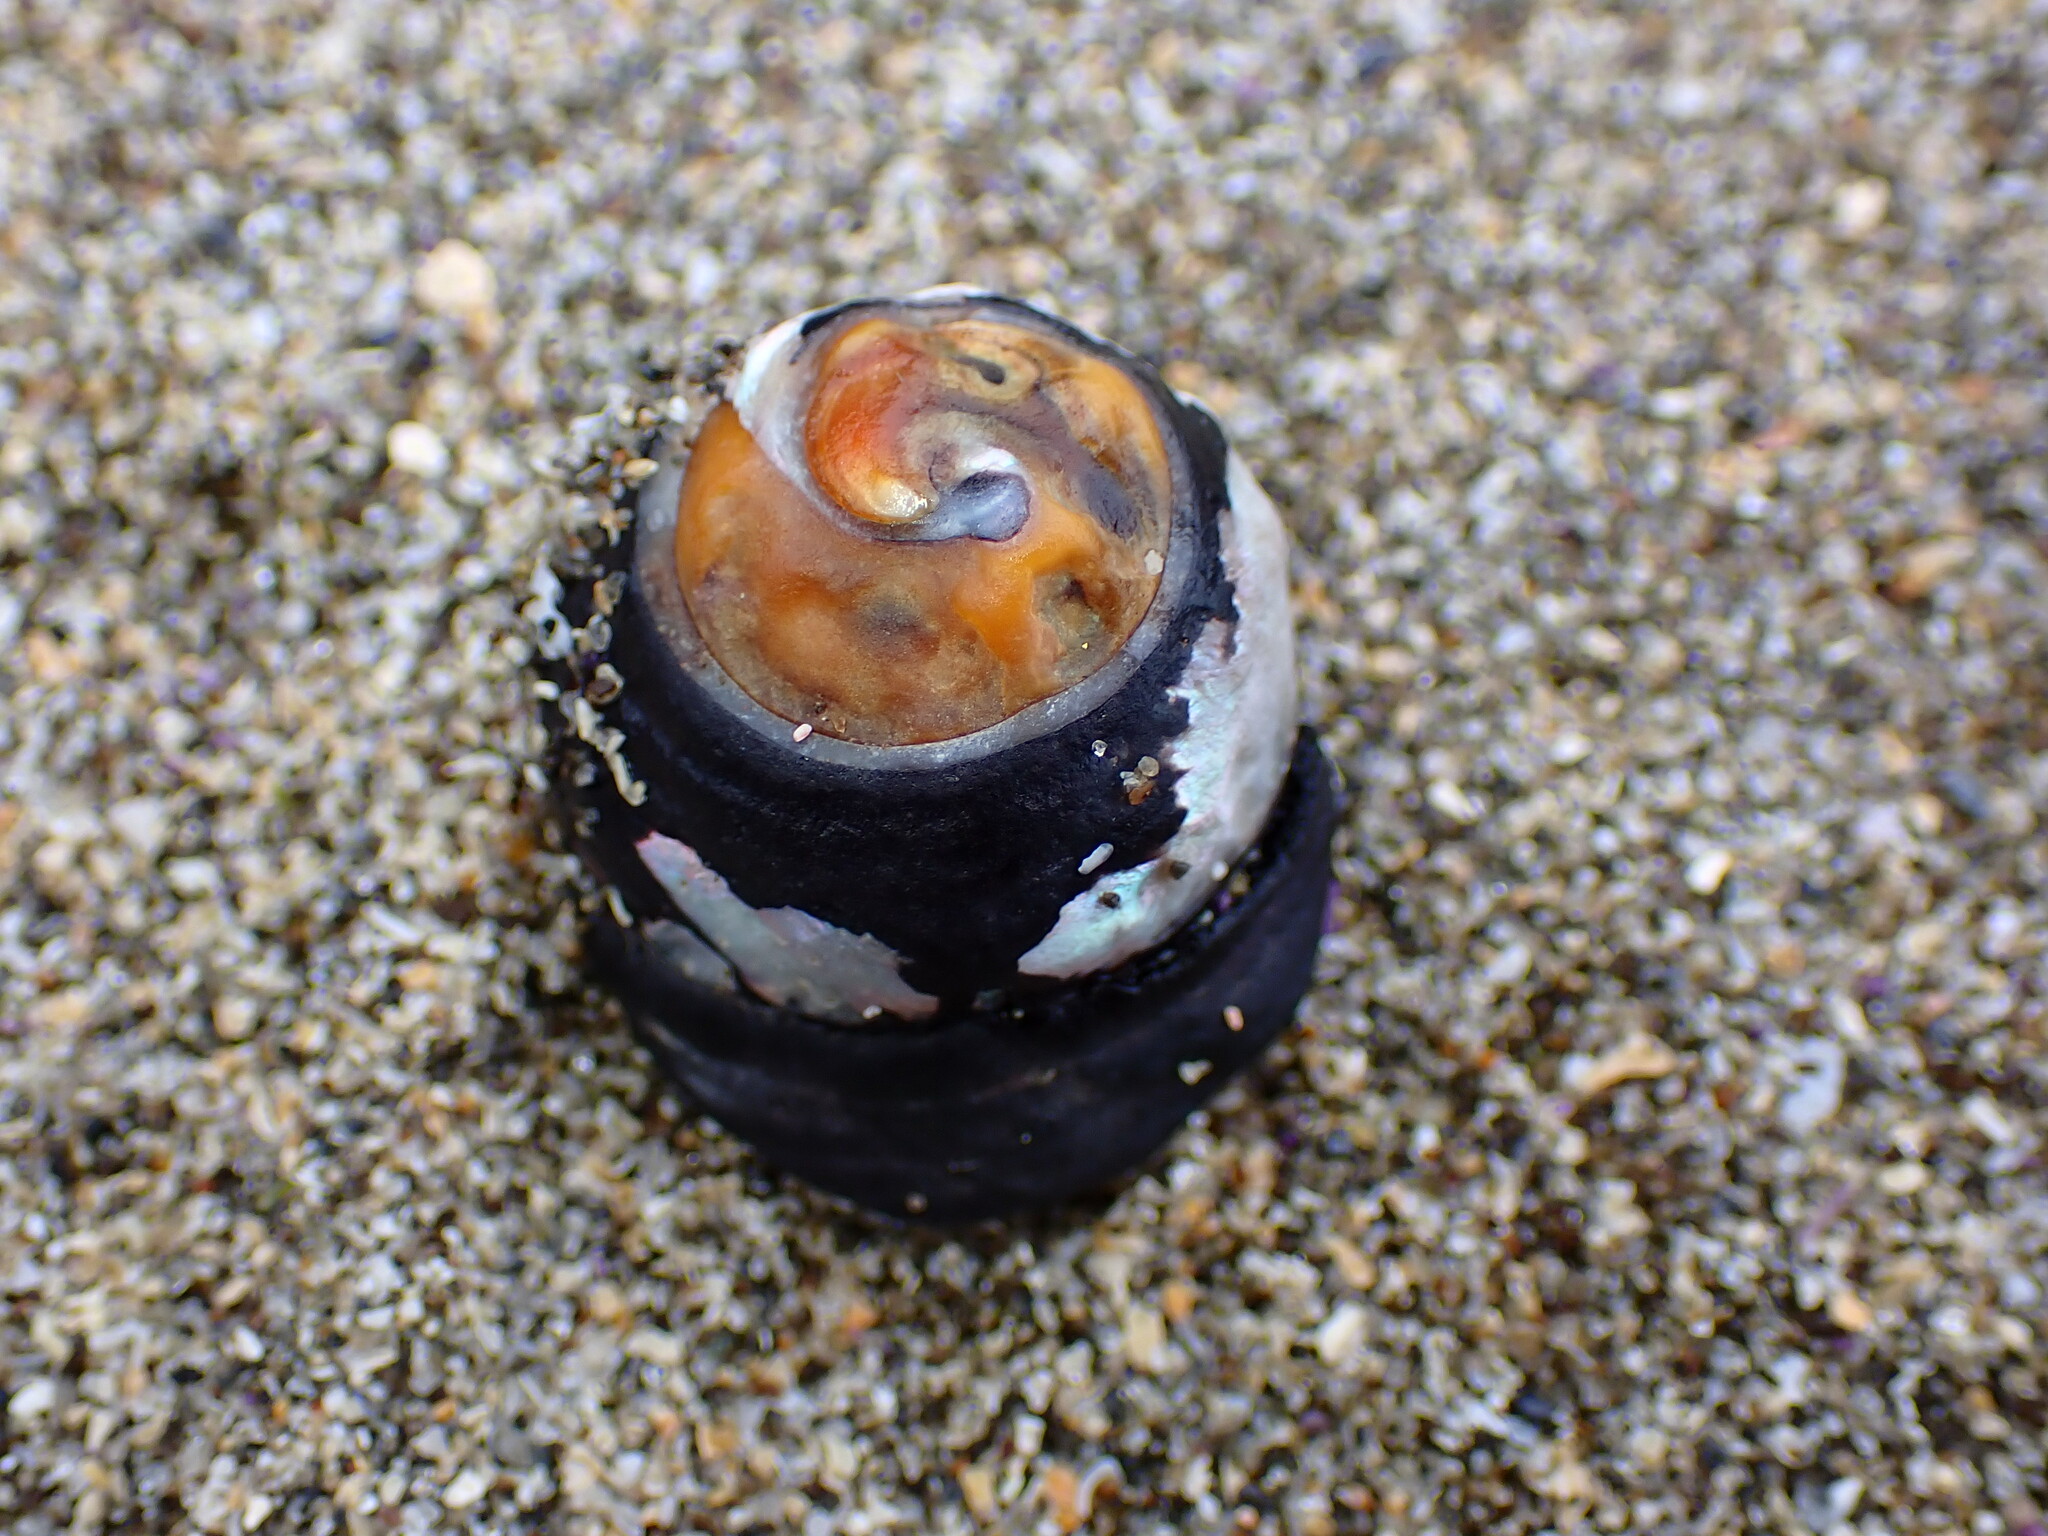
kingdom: Animalia
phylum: Mollusca
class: Gastropoda
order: Trochida
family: Tegulidae
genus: Tegula
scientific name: Tegula funebralis
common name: Black tegula
